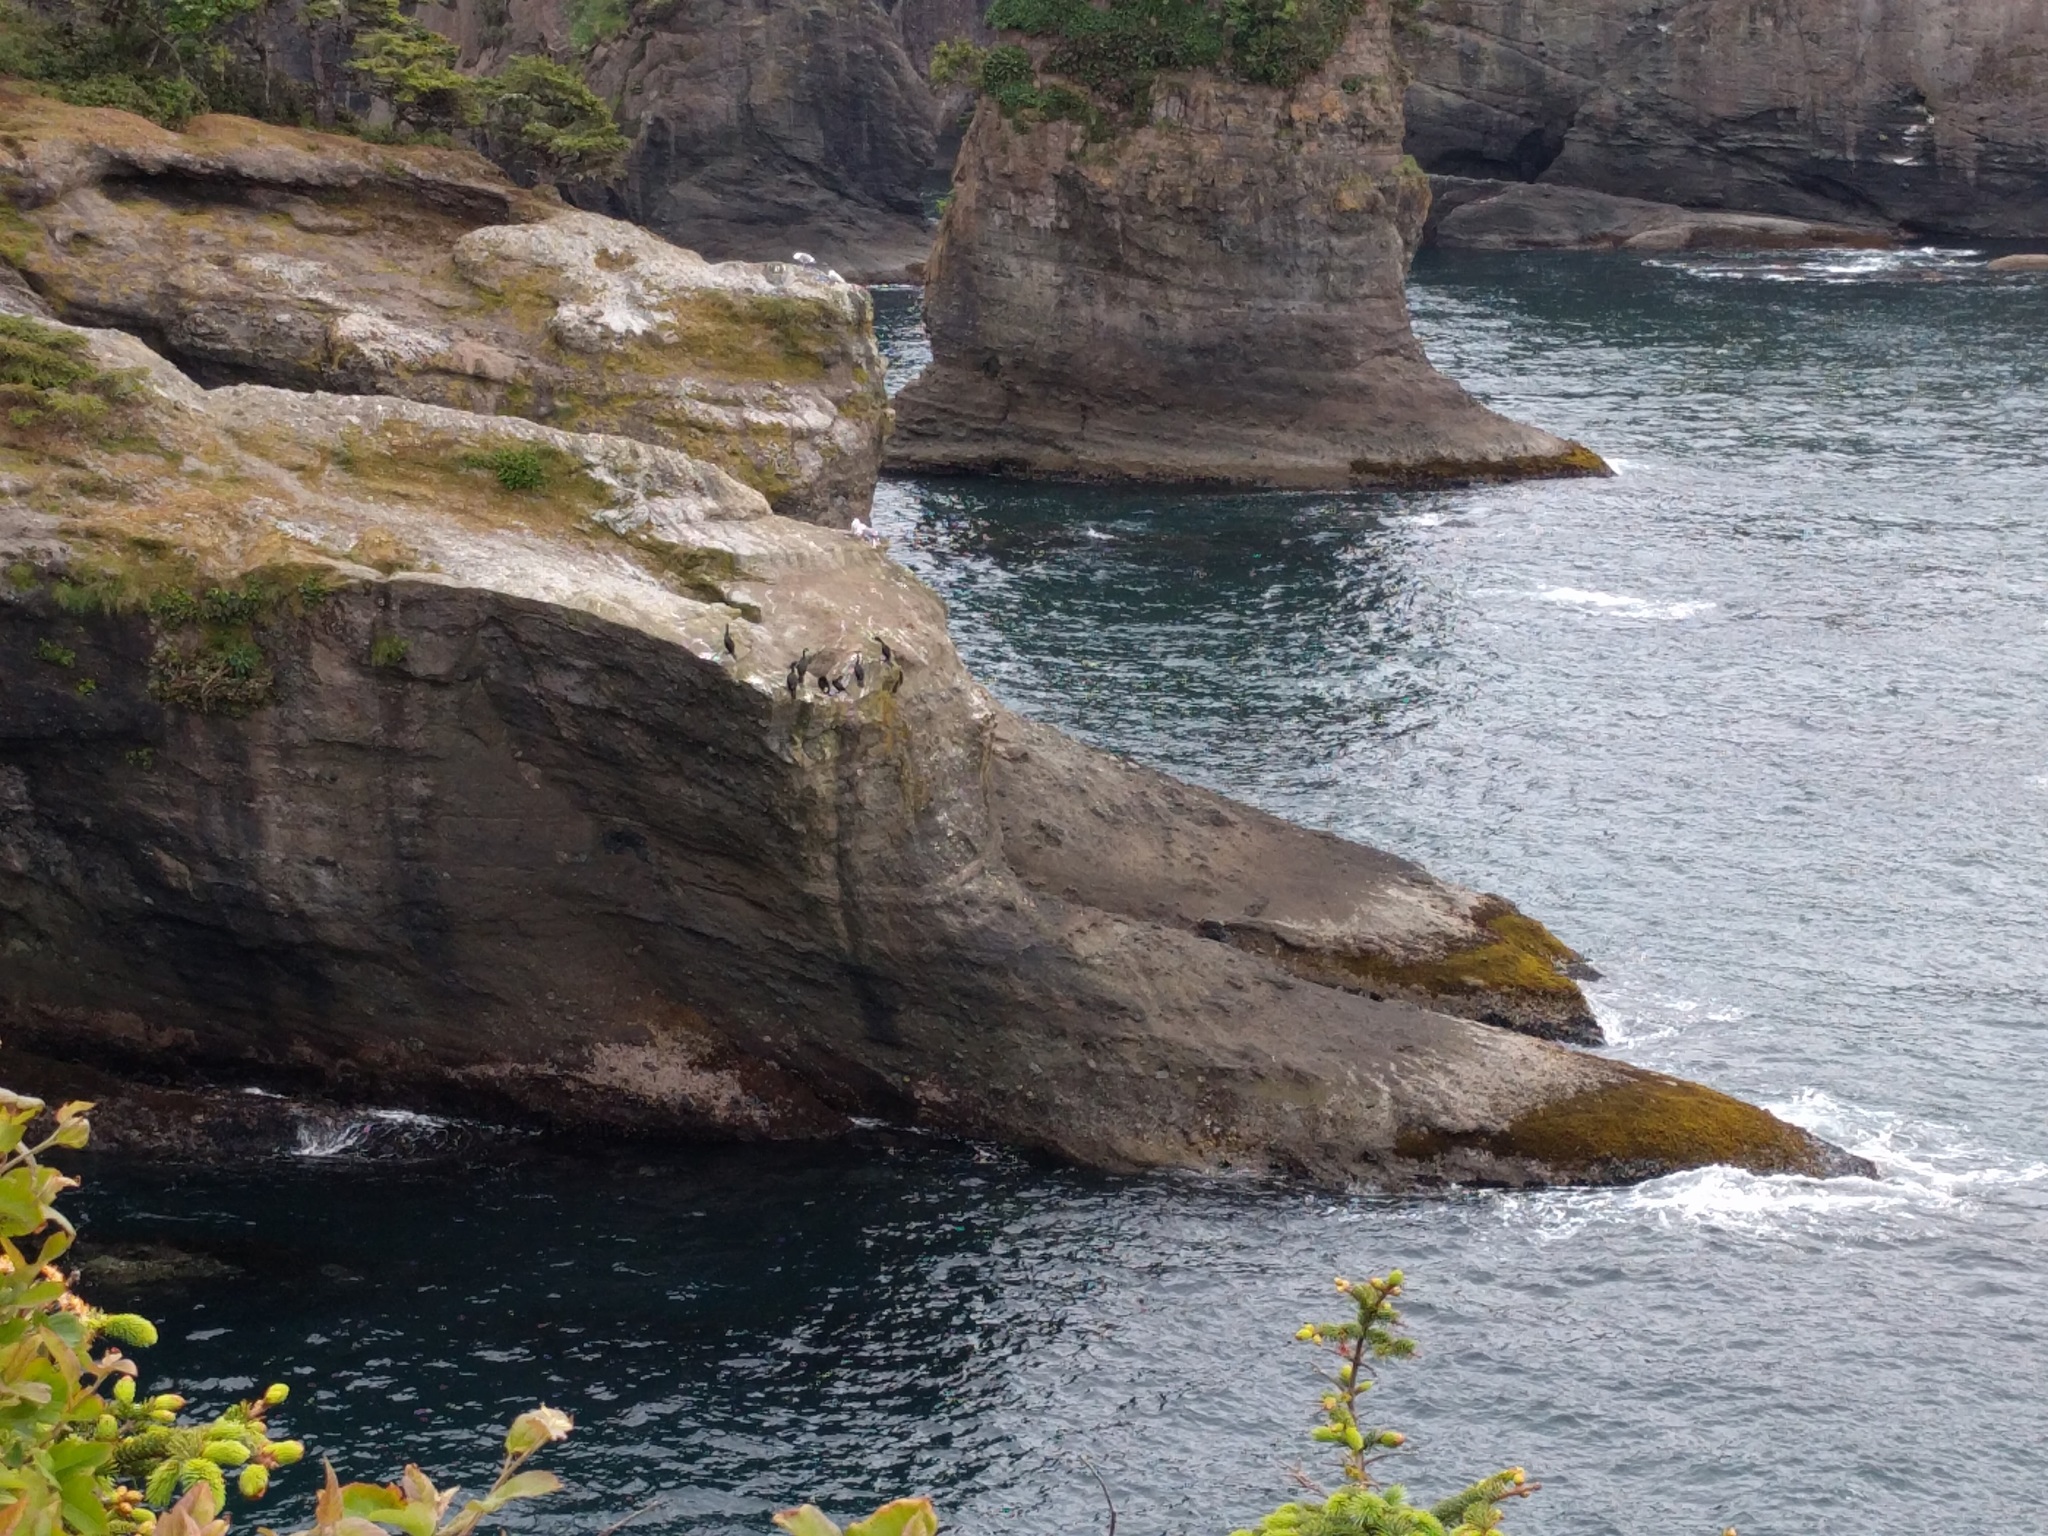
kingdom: Animalia
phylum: Chordata
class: Aves
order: Suliformes
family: Phalacrocoracidae
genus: Phalacrocorax
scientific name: Phalacrocorax pelagicus
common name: Pelagic cormorant
